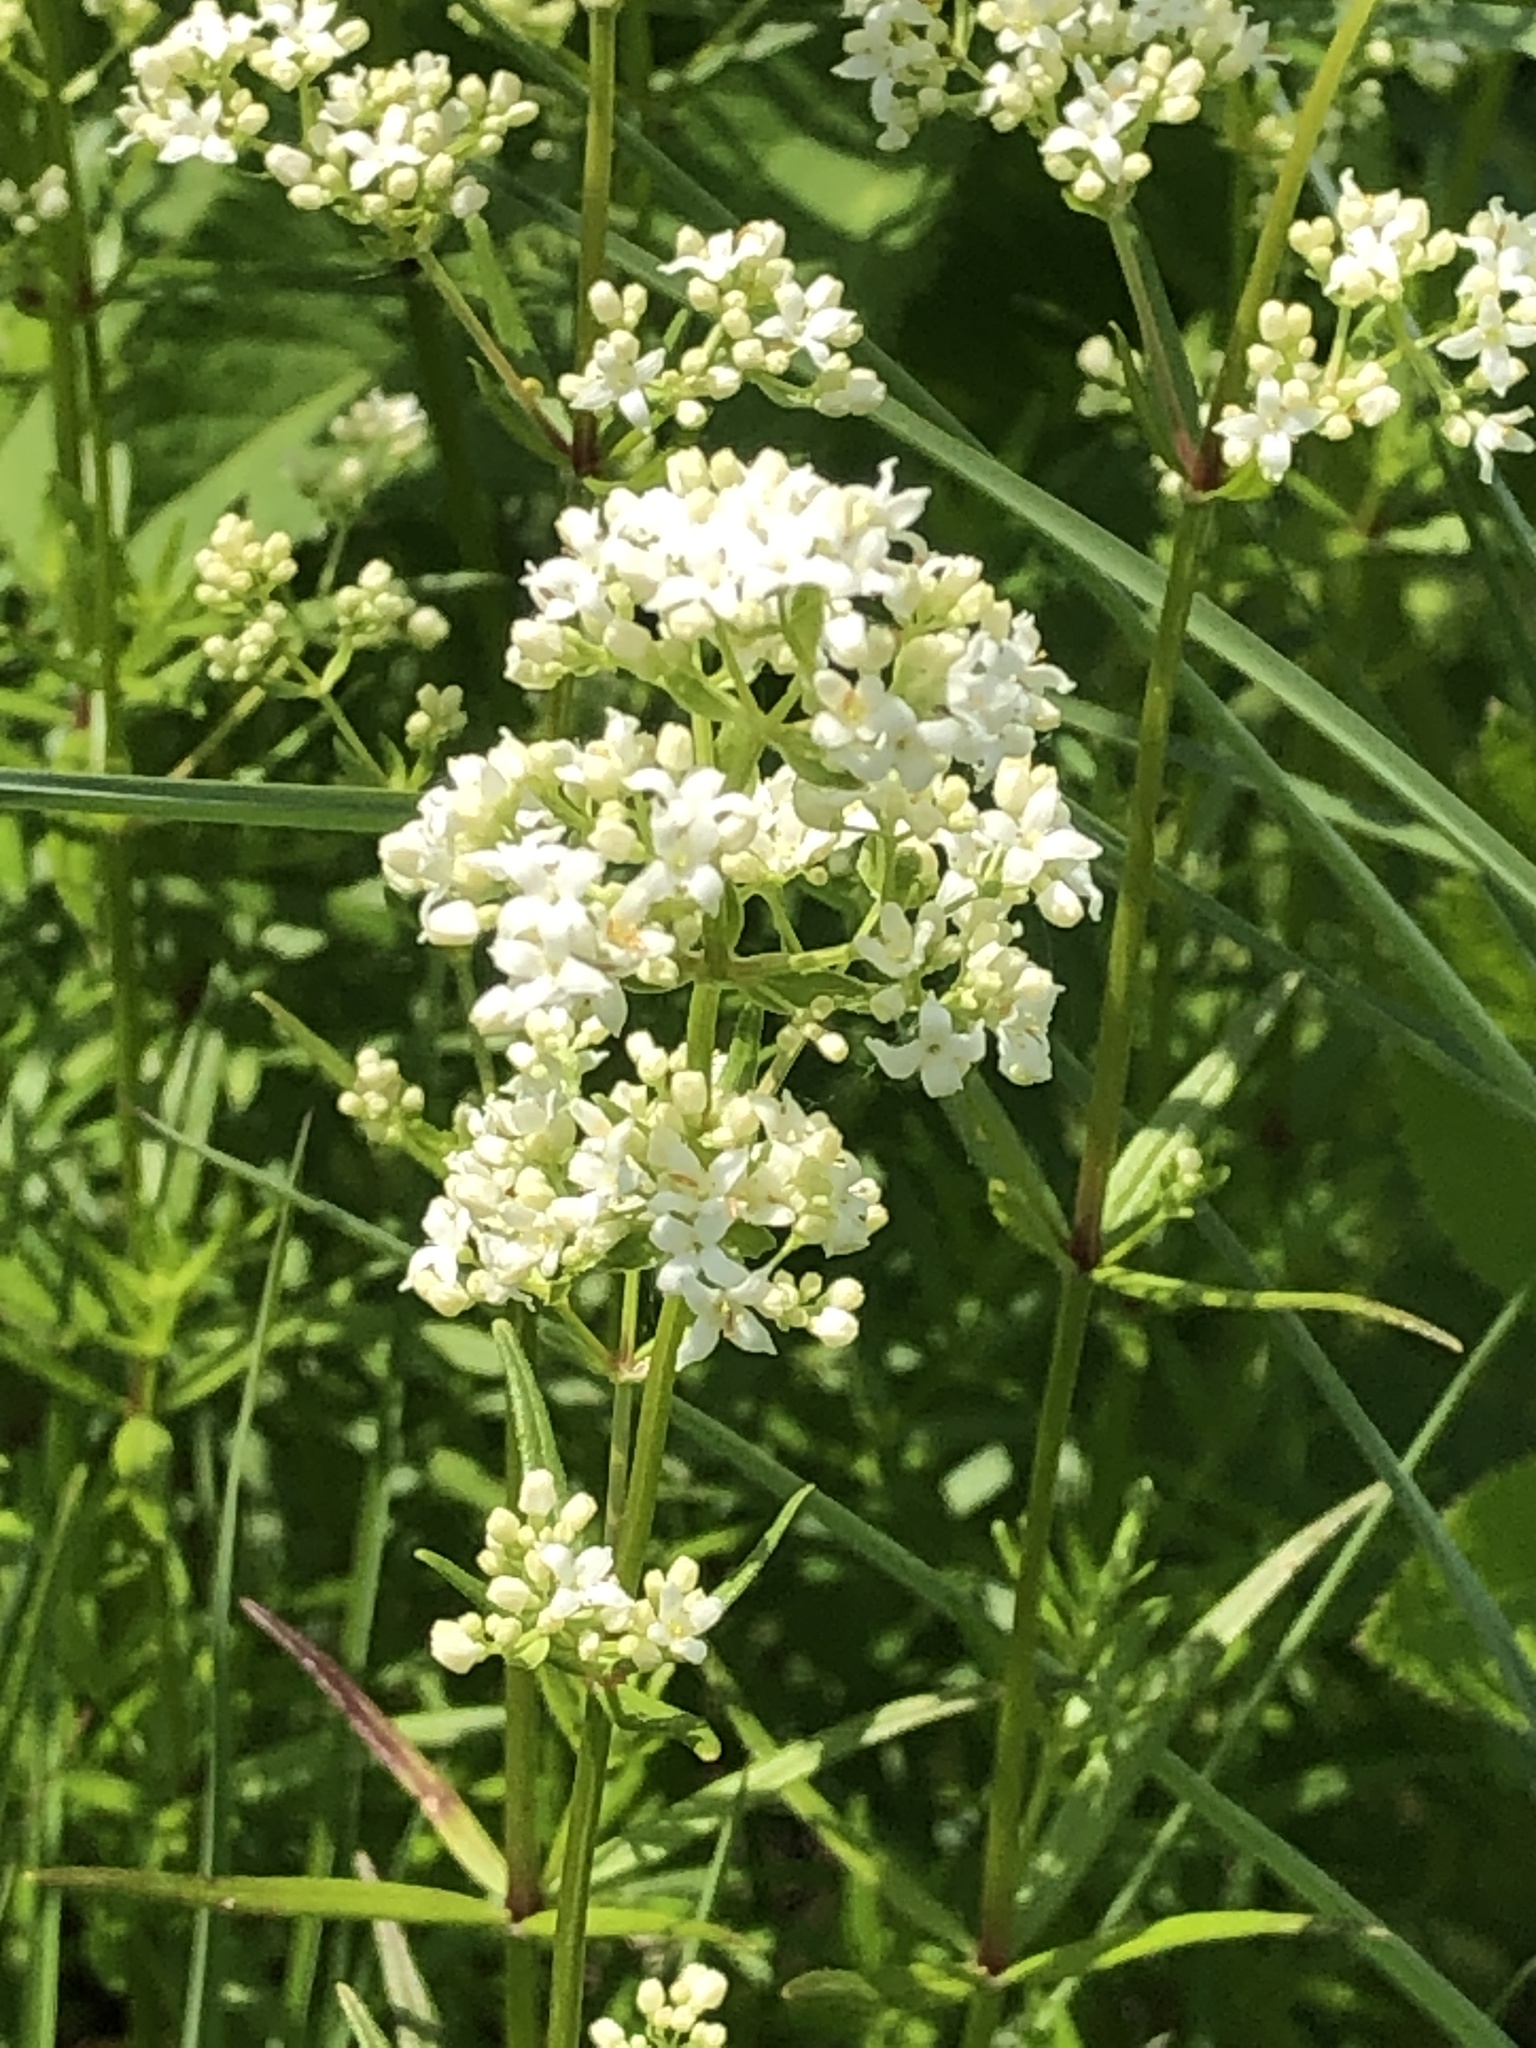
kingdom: Plantae
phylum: Tracheophyta
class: Magnoliopsida
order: Gentianales
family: Rubiaceae
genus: Galium
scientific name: Galium boreale
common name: Northern bedstraw
